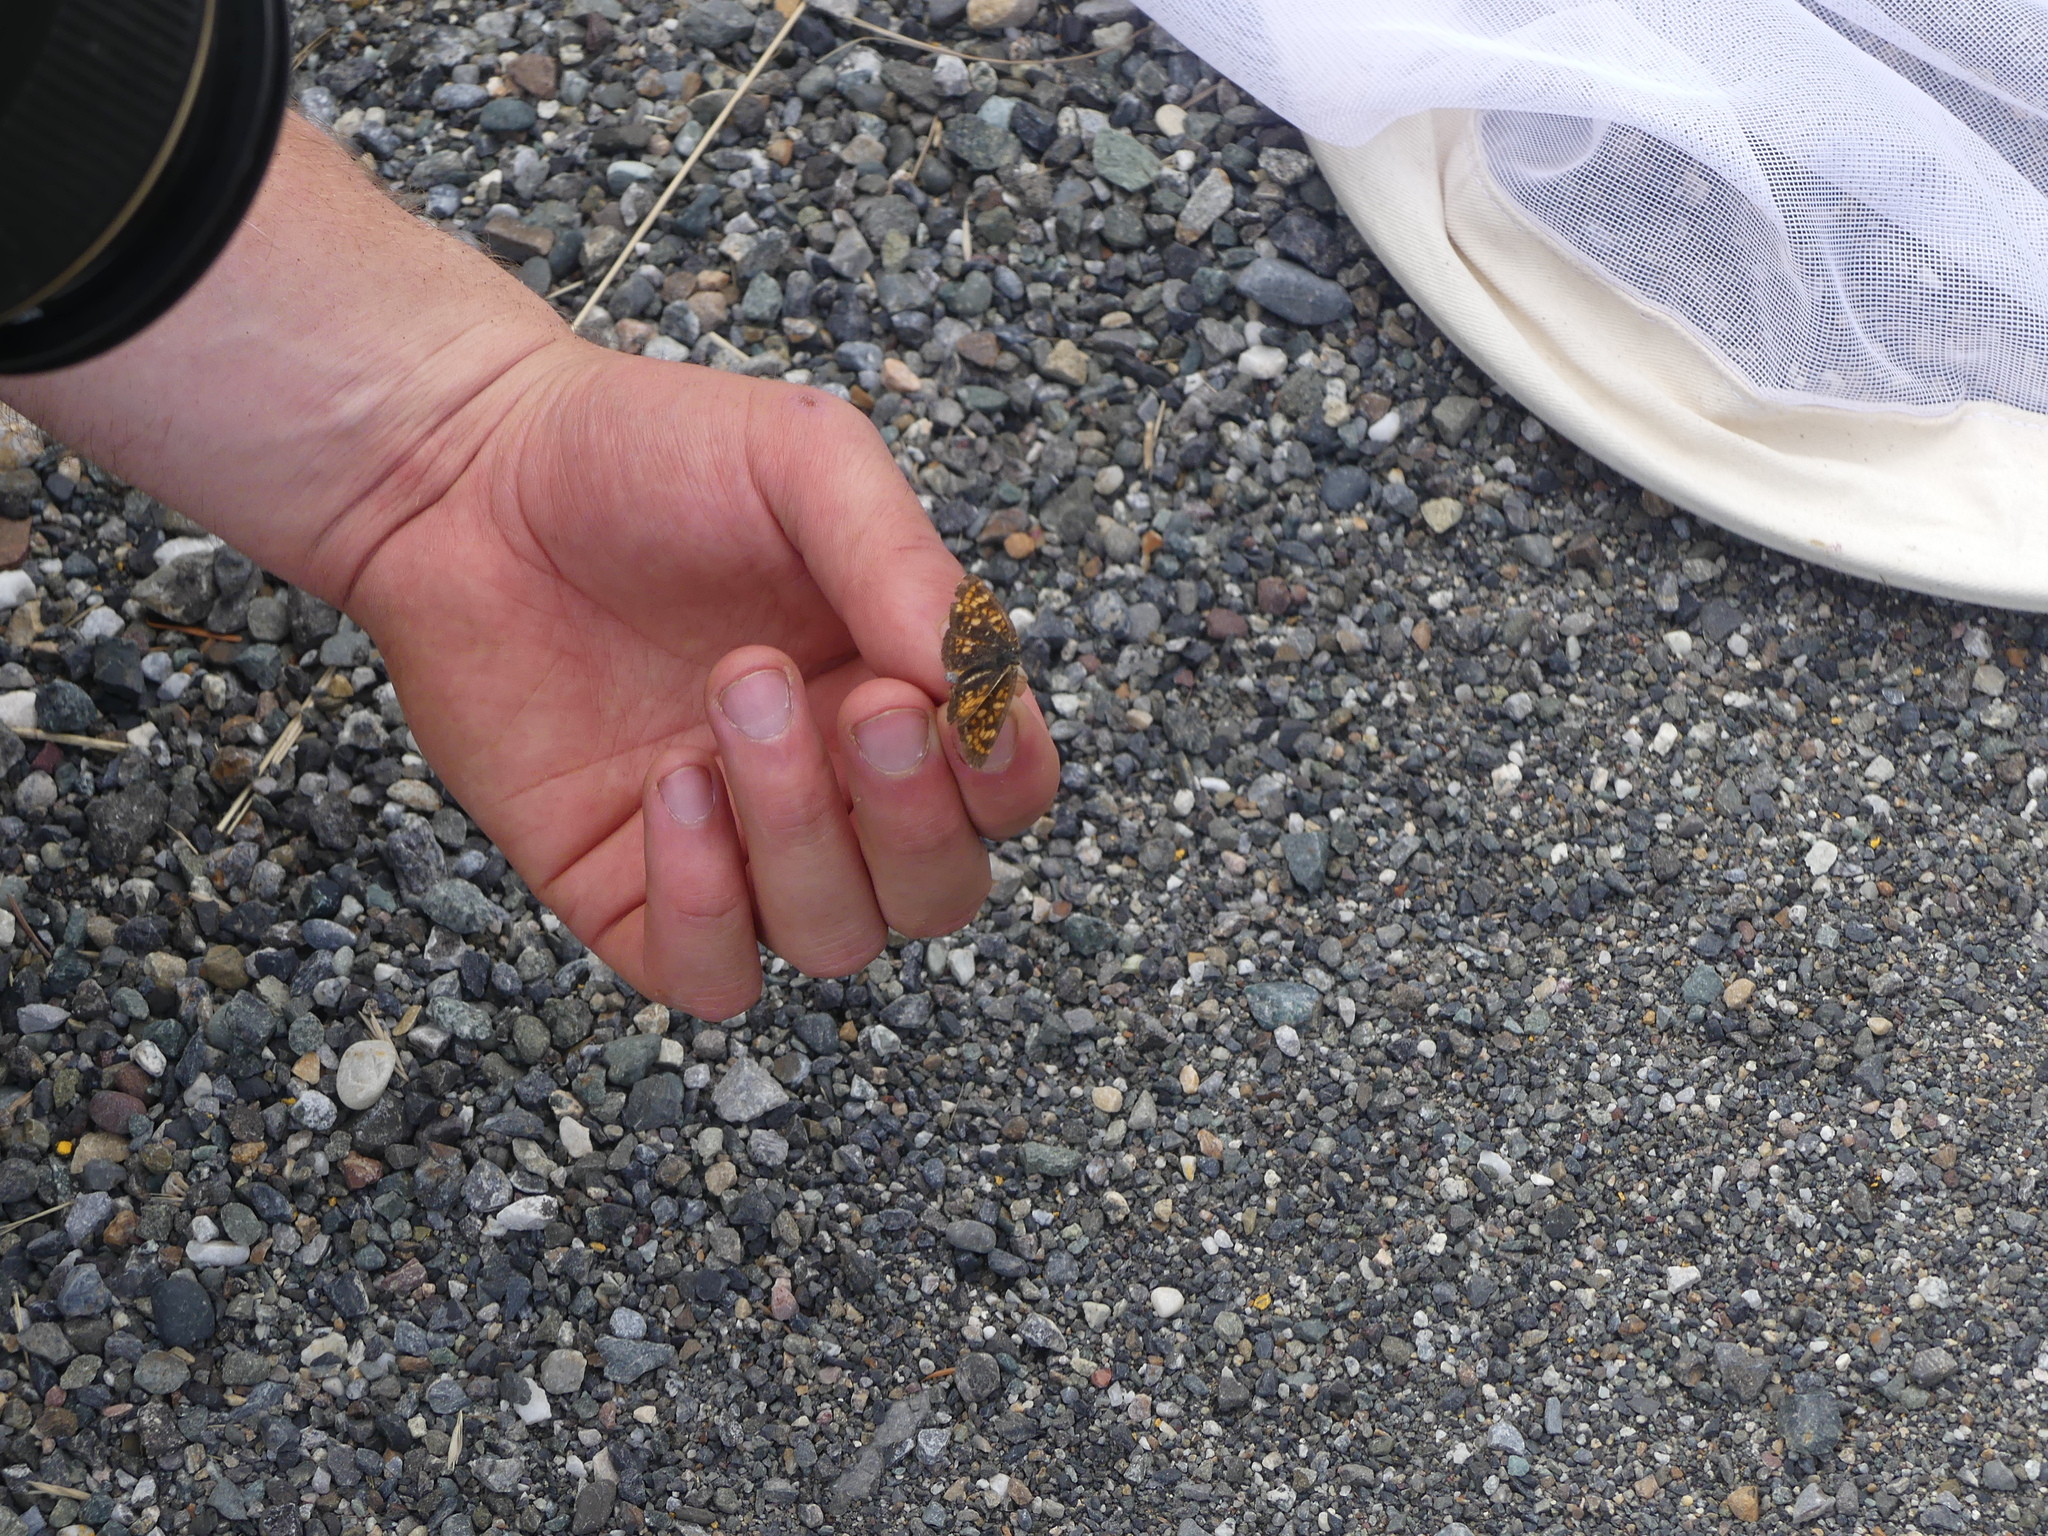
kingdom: Animalia
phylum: Arthropoda
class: Insecta
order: Lepidoptera
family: Nymphalidae
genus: Phyciodes
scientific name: Phyciodes tharos
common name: Pearl crescent
